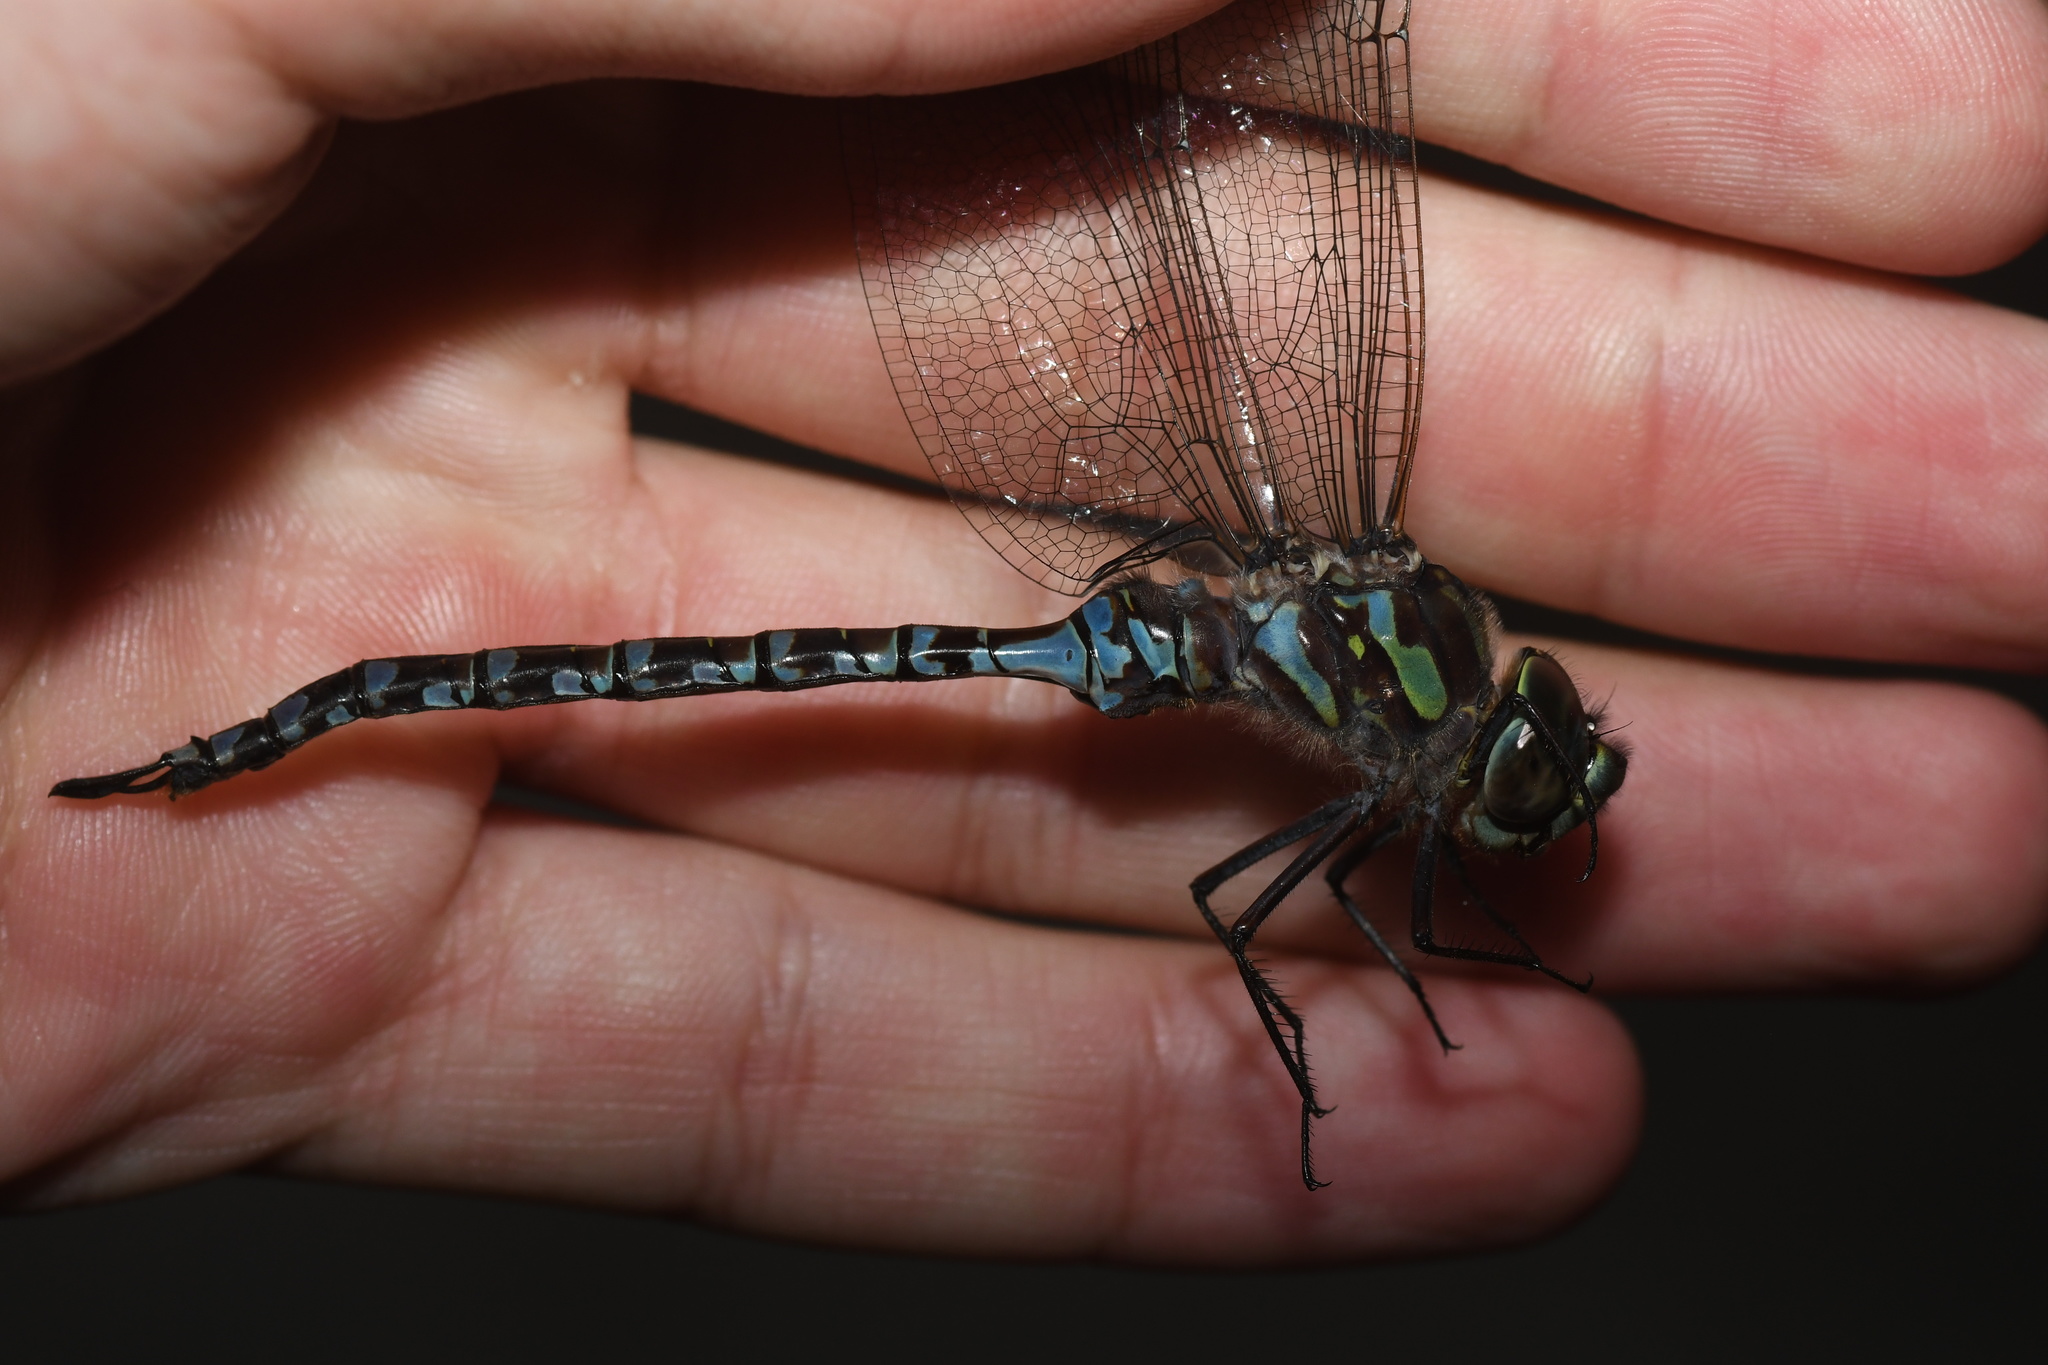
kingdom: Animalia
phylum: Arthropoda
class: Insecta
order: Odonata
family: Aeshnidae
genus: Aeshna
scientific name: Aeshna canadensis
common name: Canada darner
